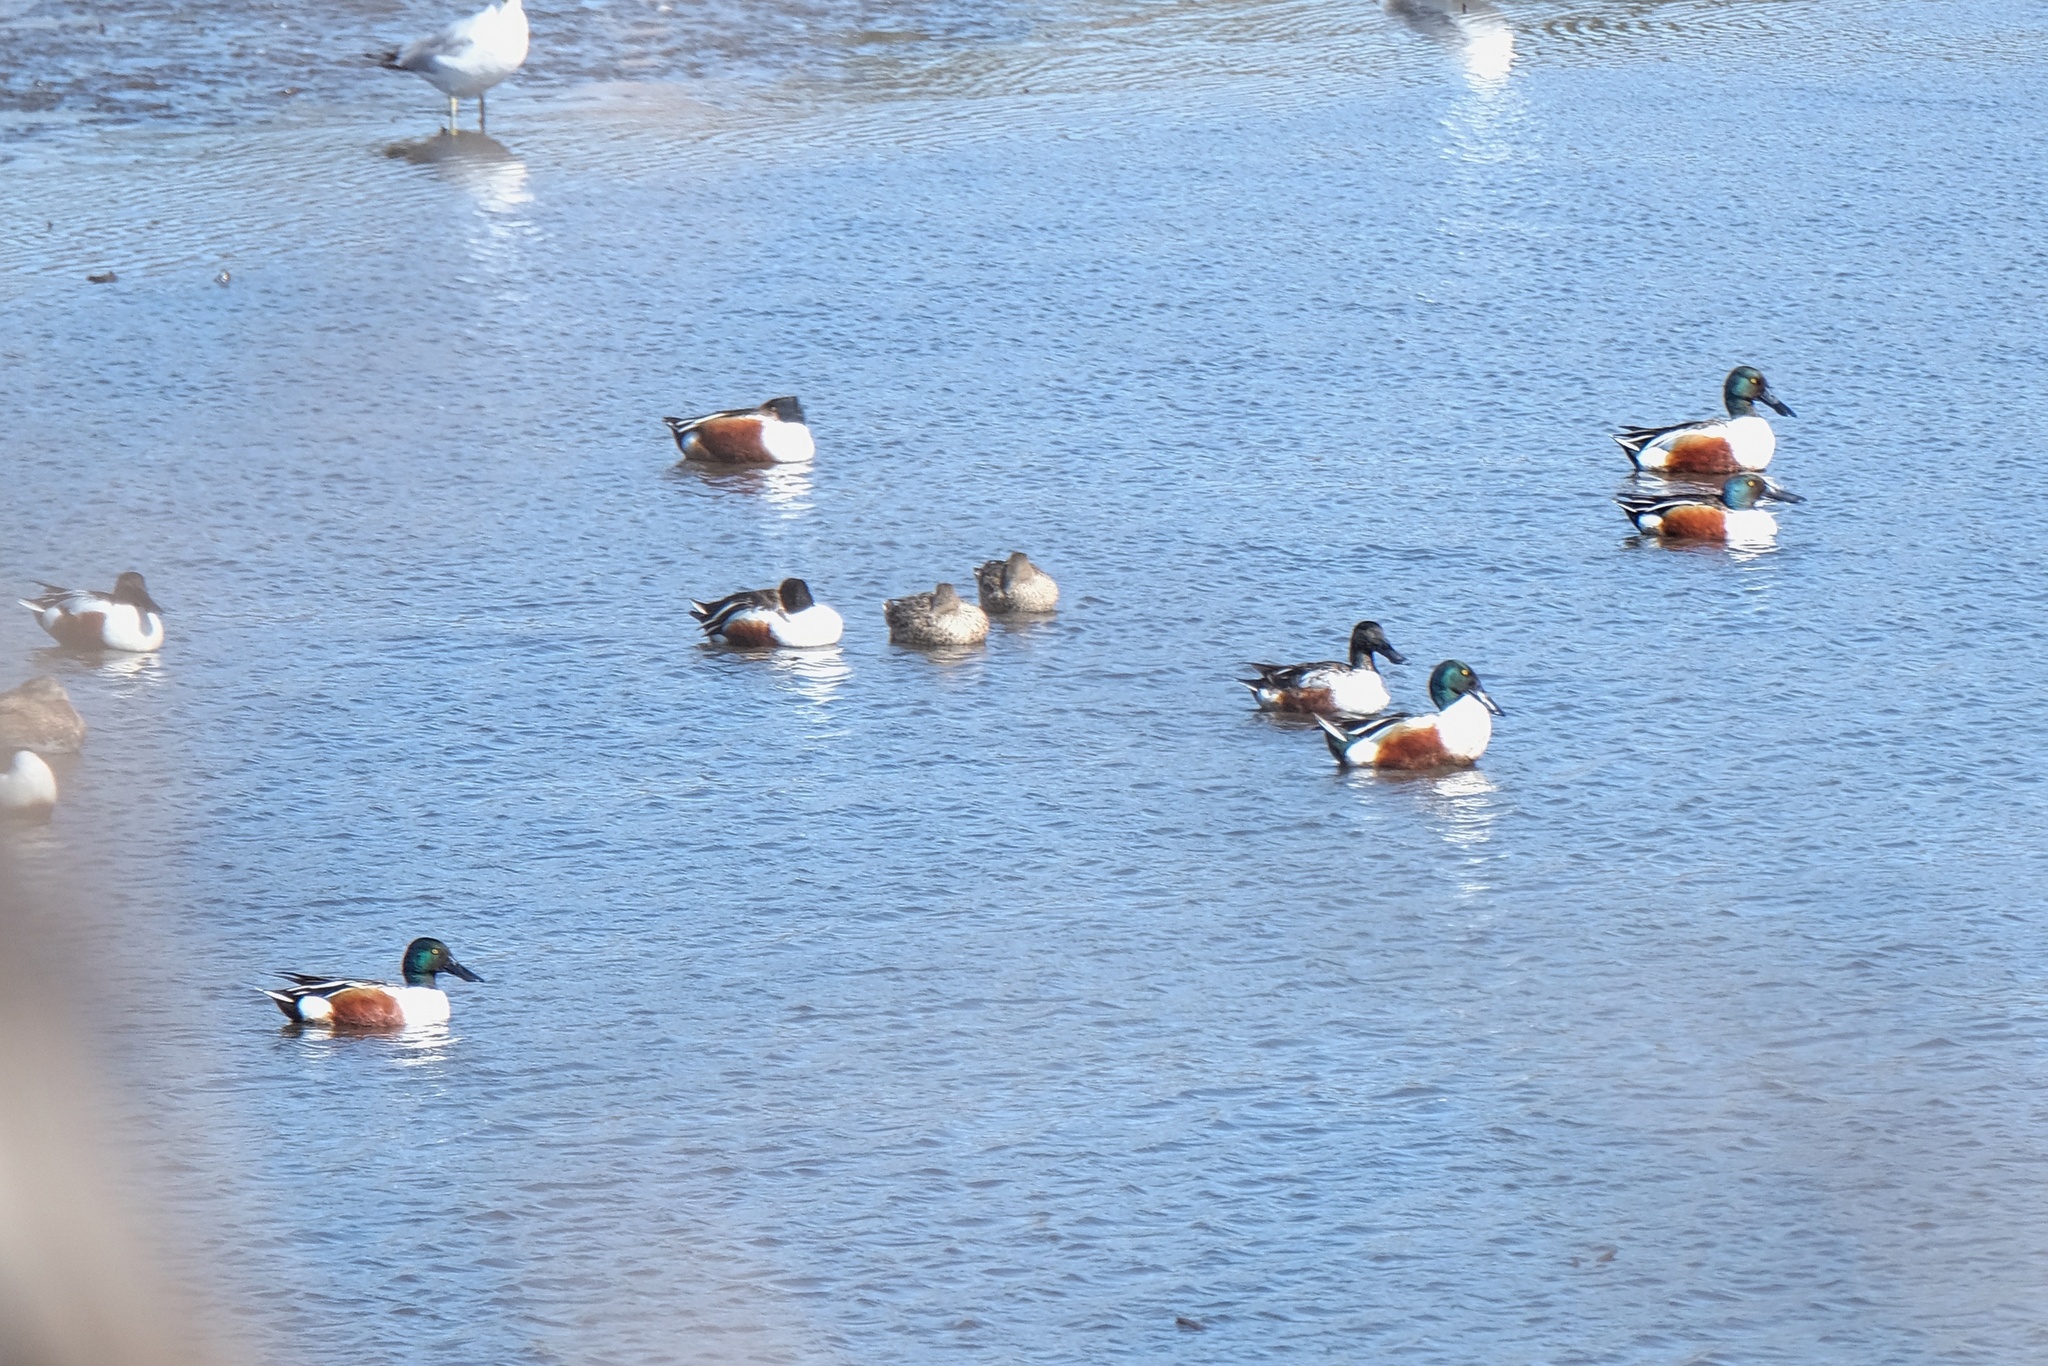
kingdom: Animalia
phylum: Chordata
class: Aves
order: Anseriformes
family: Anatidae
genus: Spatula
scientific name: Spatula clypeata
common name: Northern shoveler
